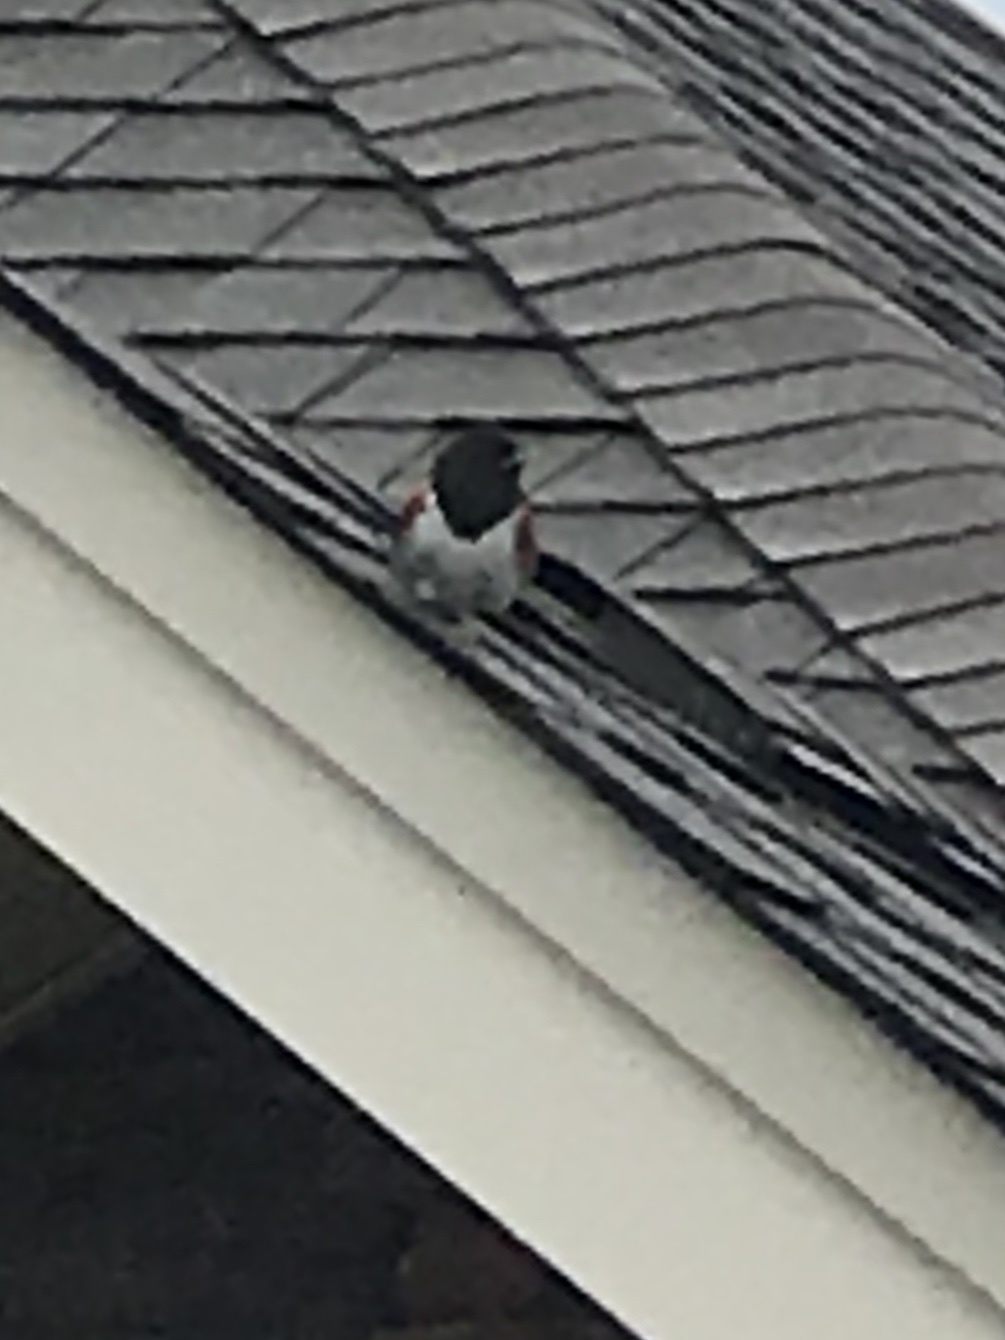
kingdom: Animalia
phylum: Chordata
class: Aves
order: Passeriformes
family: Passerellidae
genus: Pipilo
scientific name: Pipilo erythrophthalmus
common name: Eastern towhee
